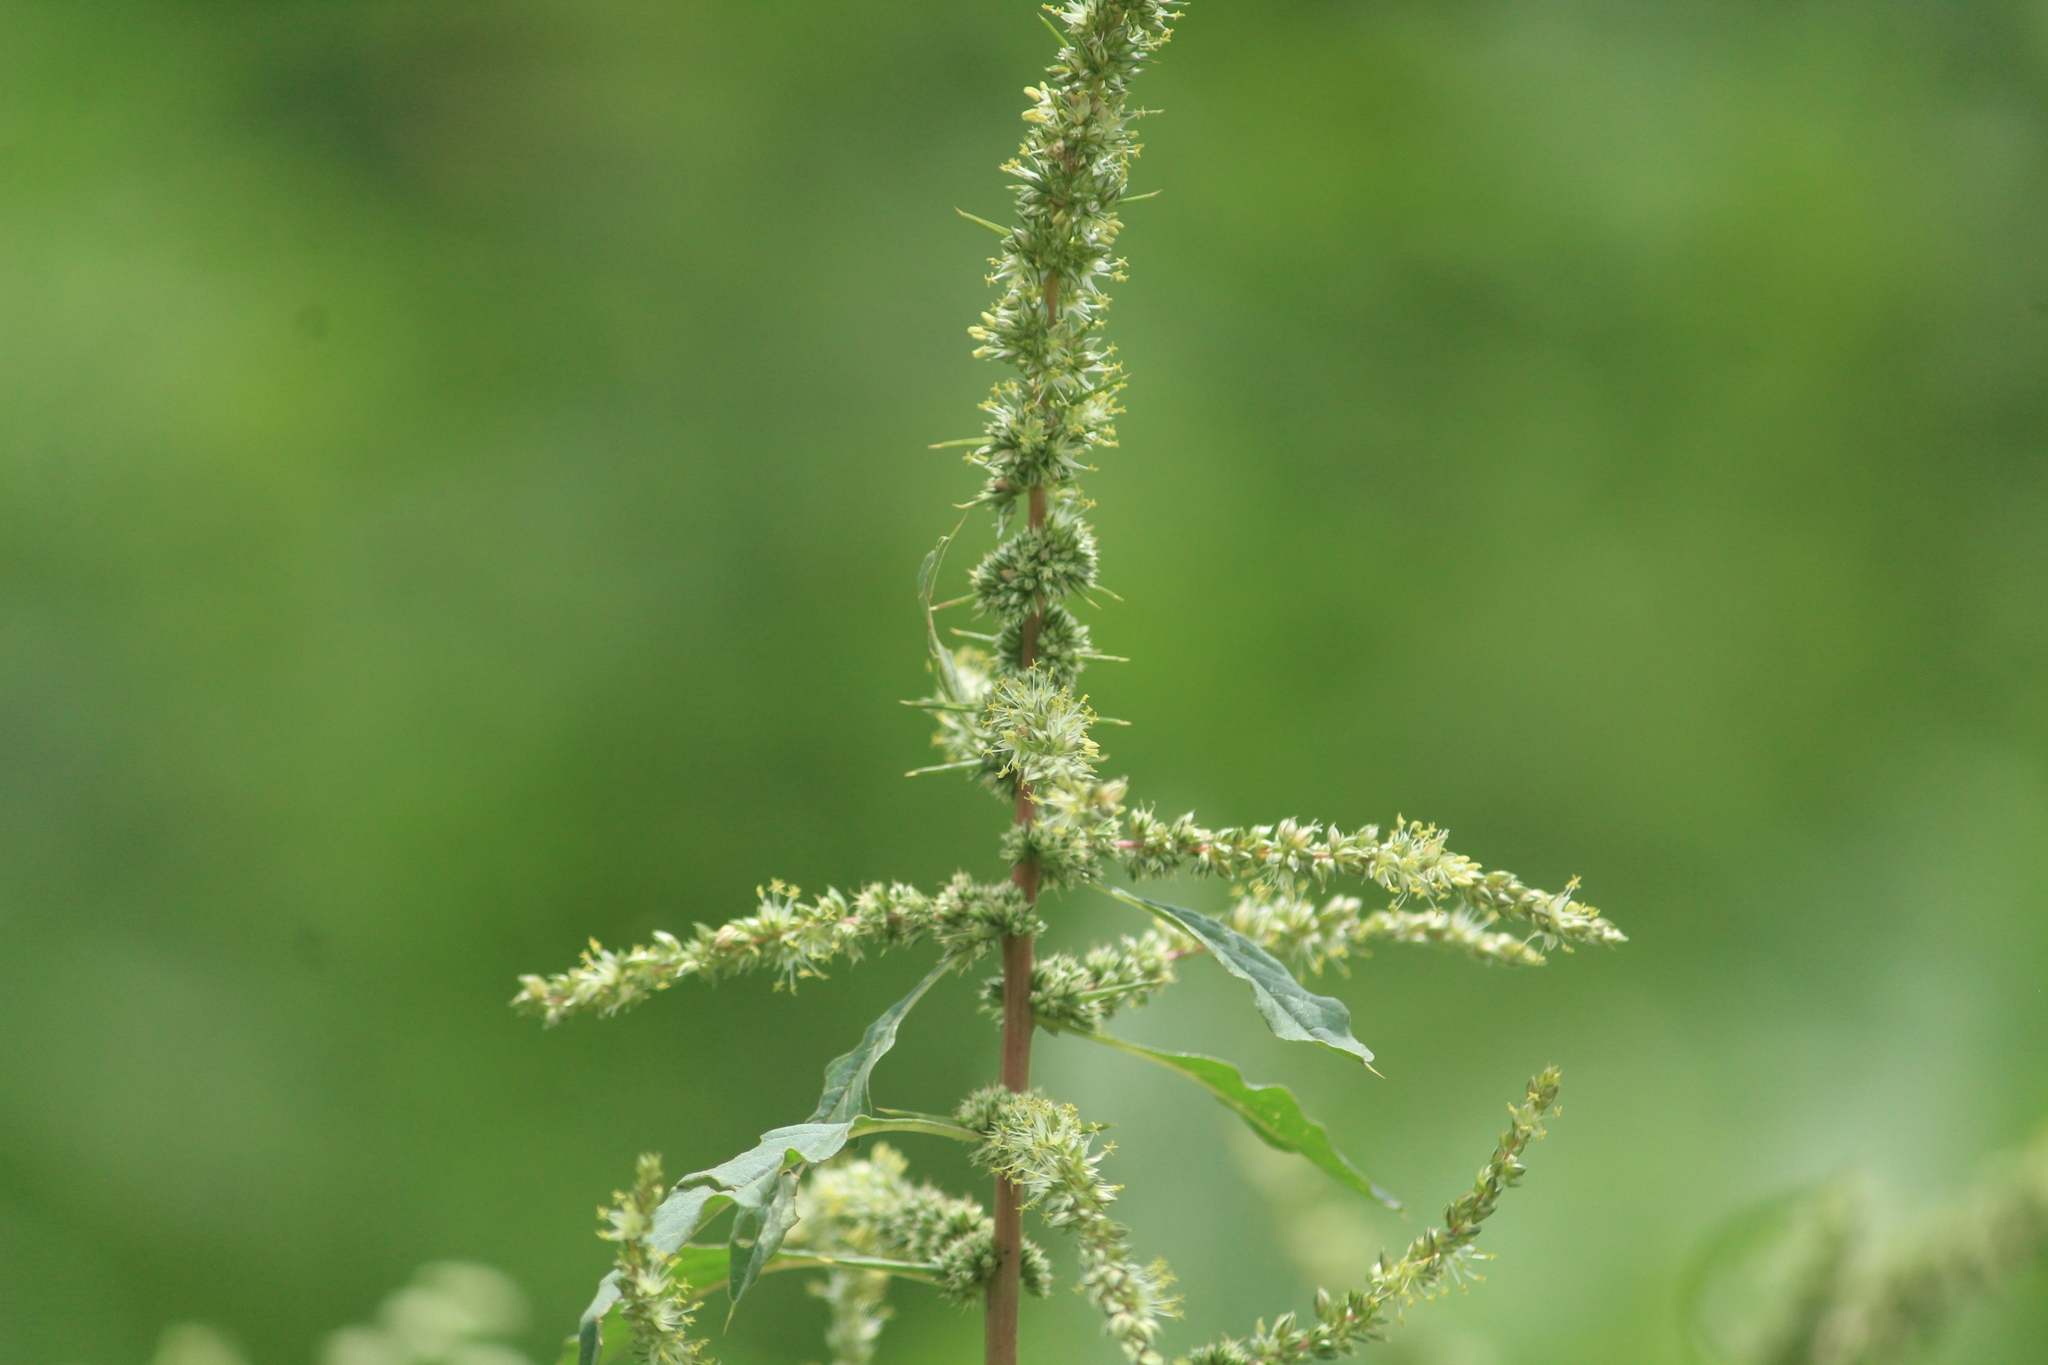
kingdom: Plantae
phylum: Tracheophyta
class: Magnoliopsida
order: Caryophyllales
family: Amaranthaceae
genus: Amaranthus
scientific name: Amaranthus spinosus
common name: Spiny amaranth
